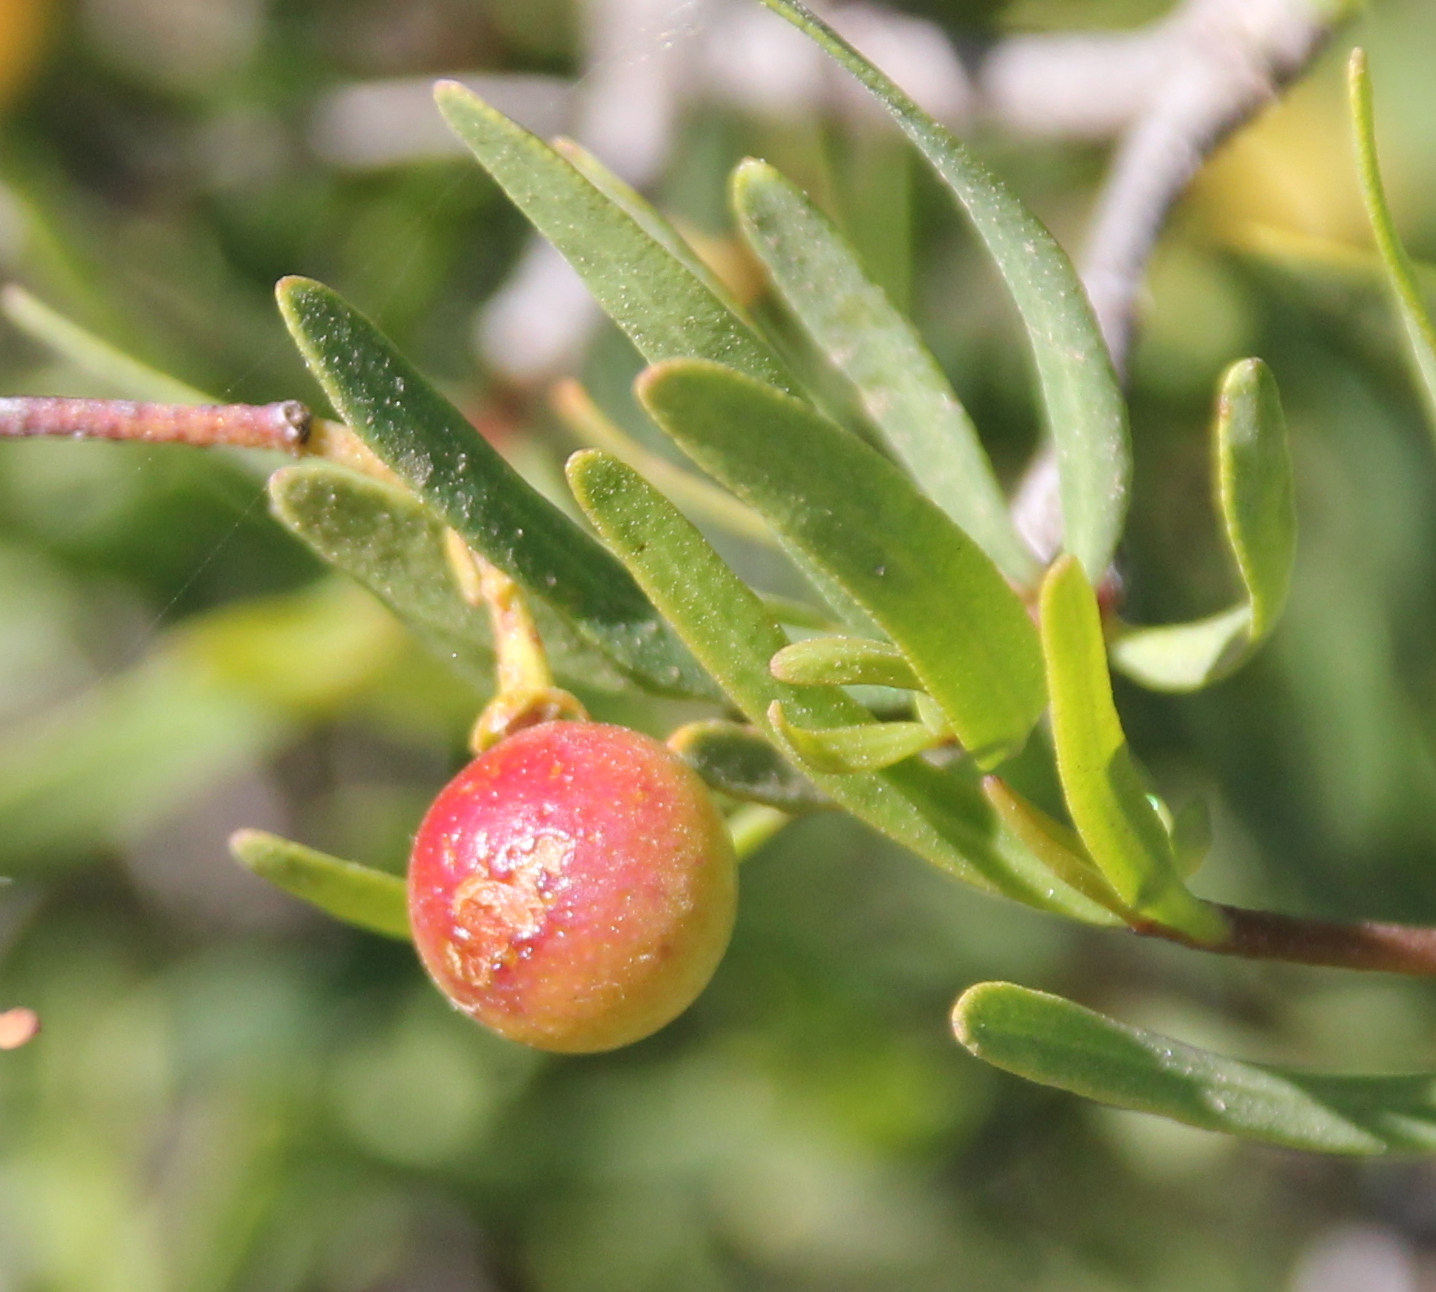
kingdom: Plantae
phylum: Tracheophyta
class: Magnoliopsida
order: Sapindales
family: Rutaceae
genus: Cneoridium
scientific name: Cneoridium dumosum
